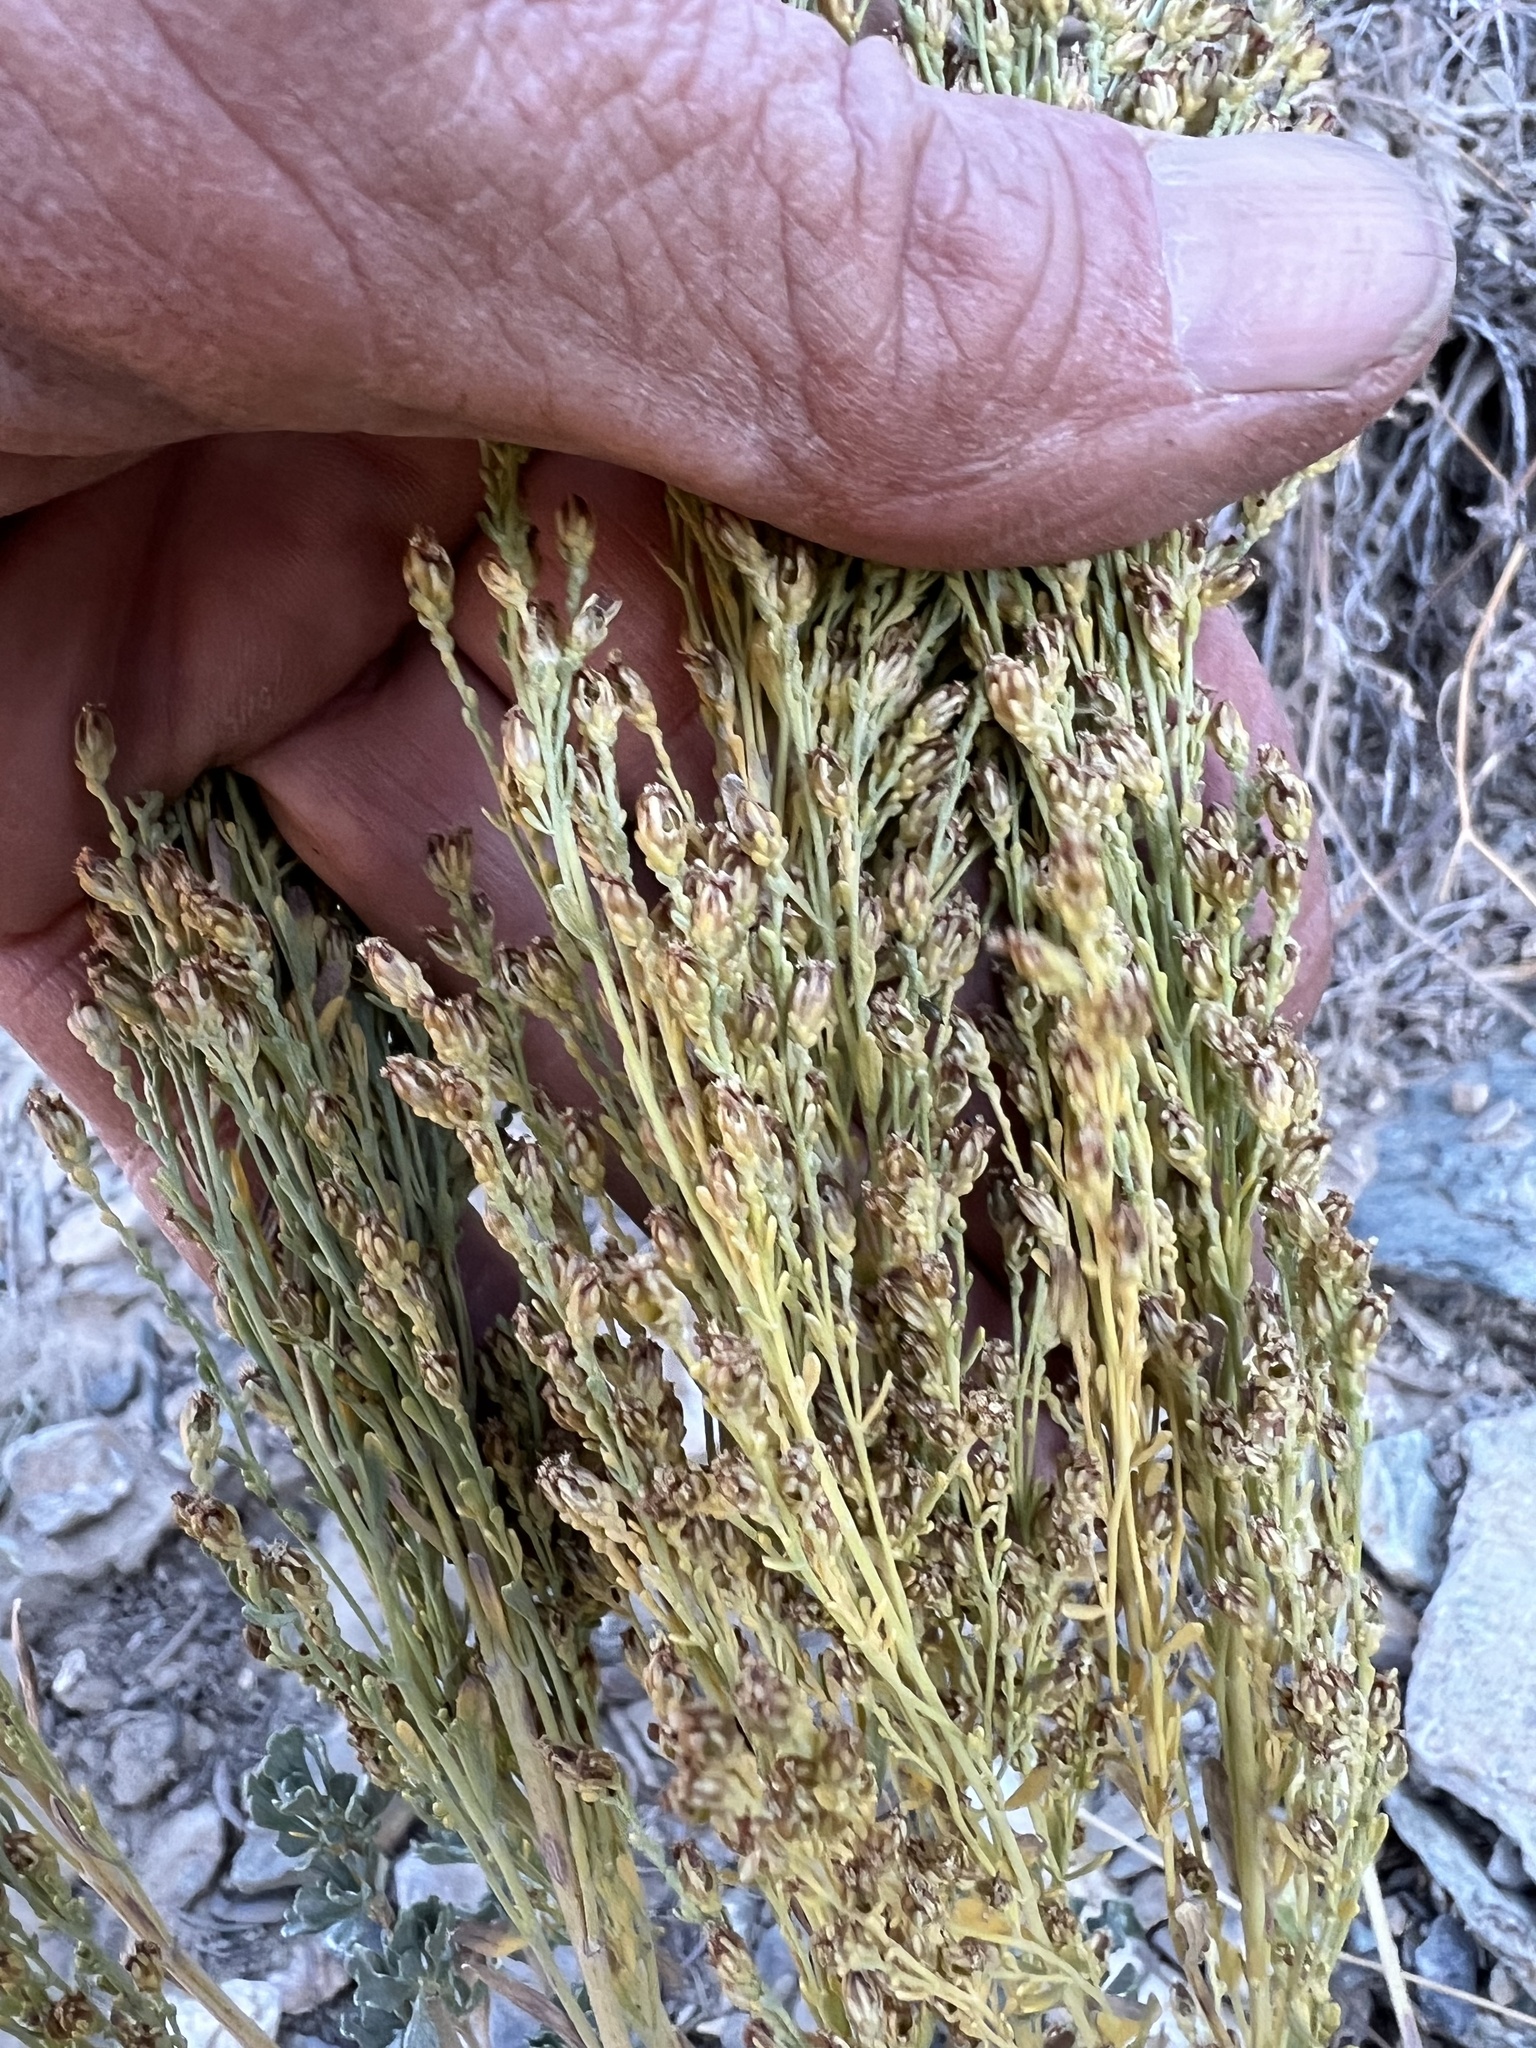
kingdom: Plantae
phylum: Tracheophyta
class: Magnoliopsida
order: Asterales
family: Asteraceae
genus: Artemisia
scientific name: Artemisia nova
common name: Black-sage
